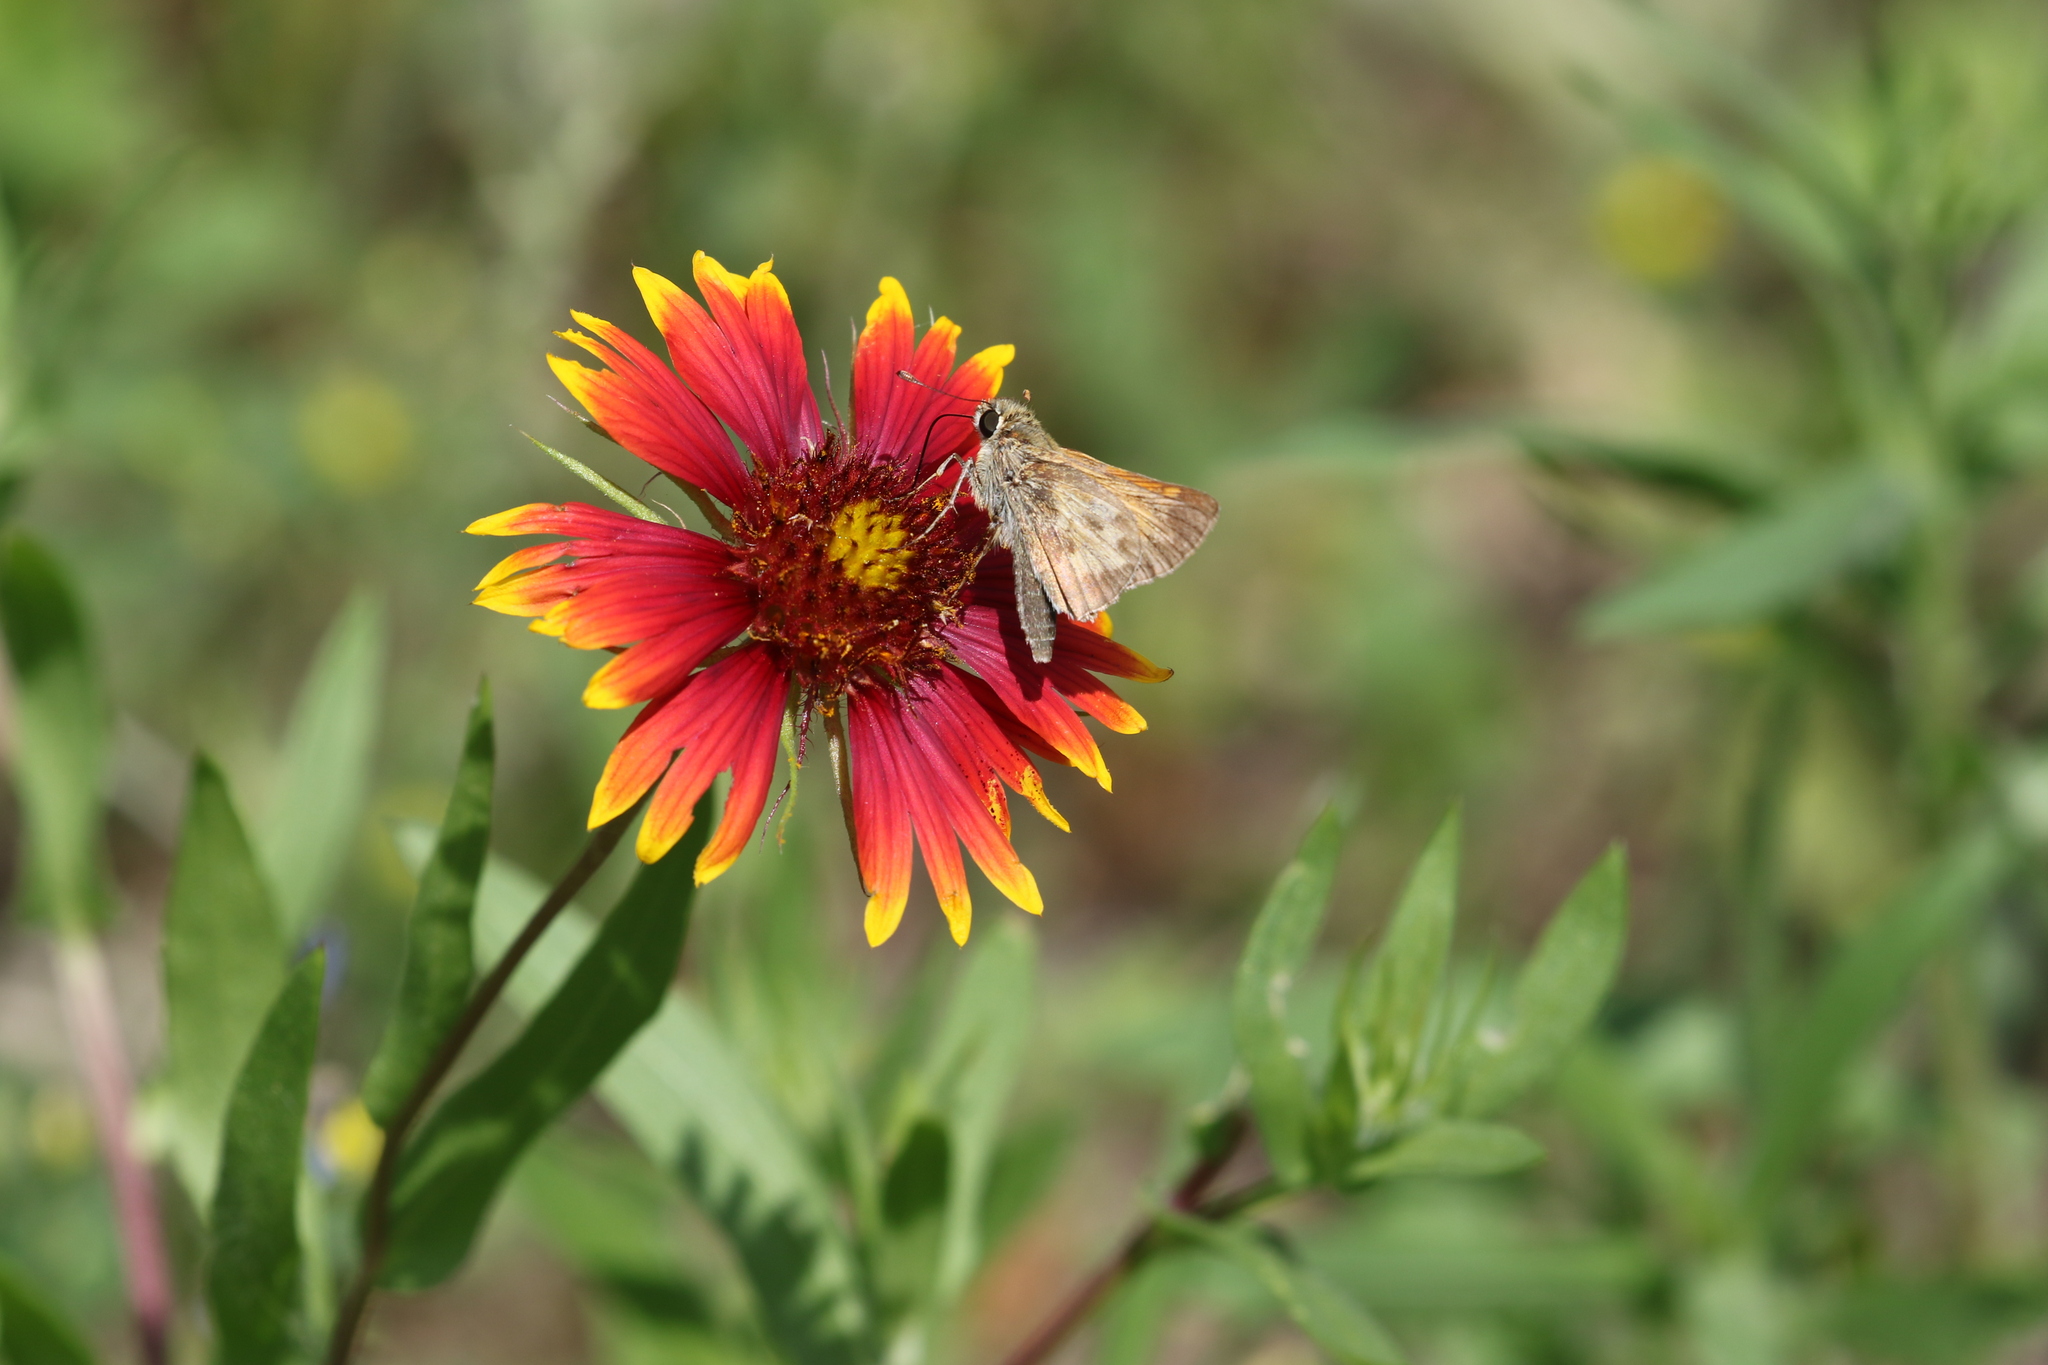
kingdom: Animalia
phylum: Arthropoda
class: Insecta
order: Lepidoptera
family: Hesperiidae
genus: Atalopedes
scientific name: Atalopedes
